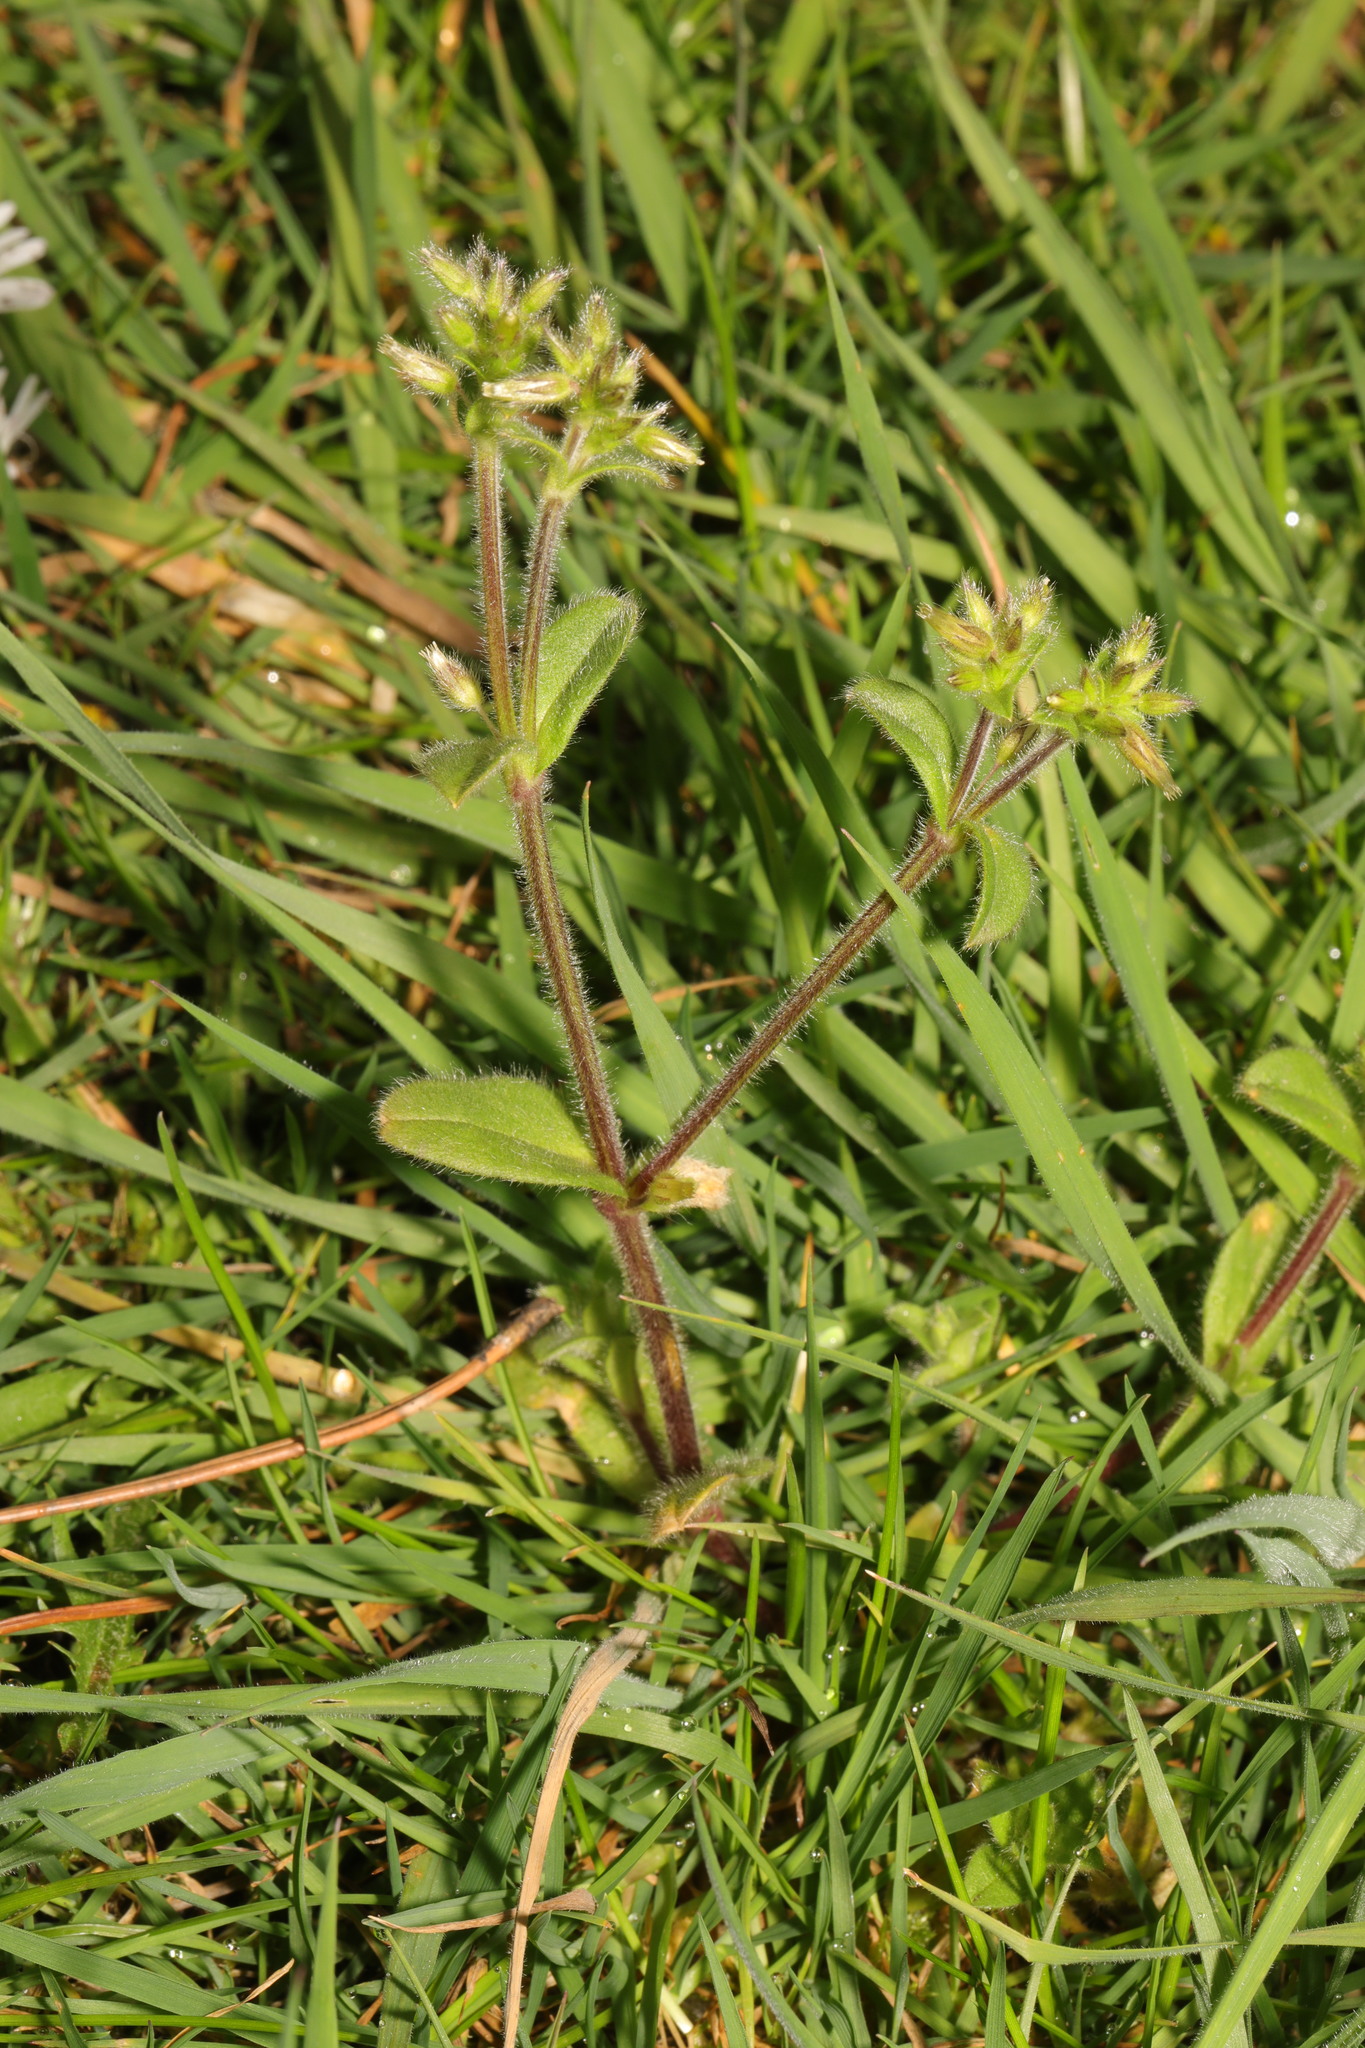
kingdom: Plantae
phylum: Tracheophyta
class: Magnoliopsida
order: Caryophyllales
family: Caryophyllaceae
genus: Cerastium
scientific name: Cerastium glomeratum
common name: Sticky chickweed
